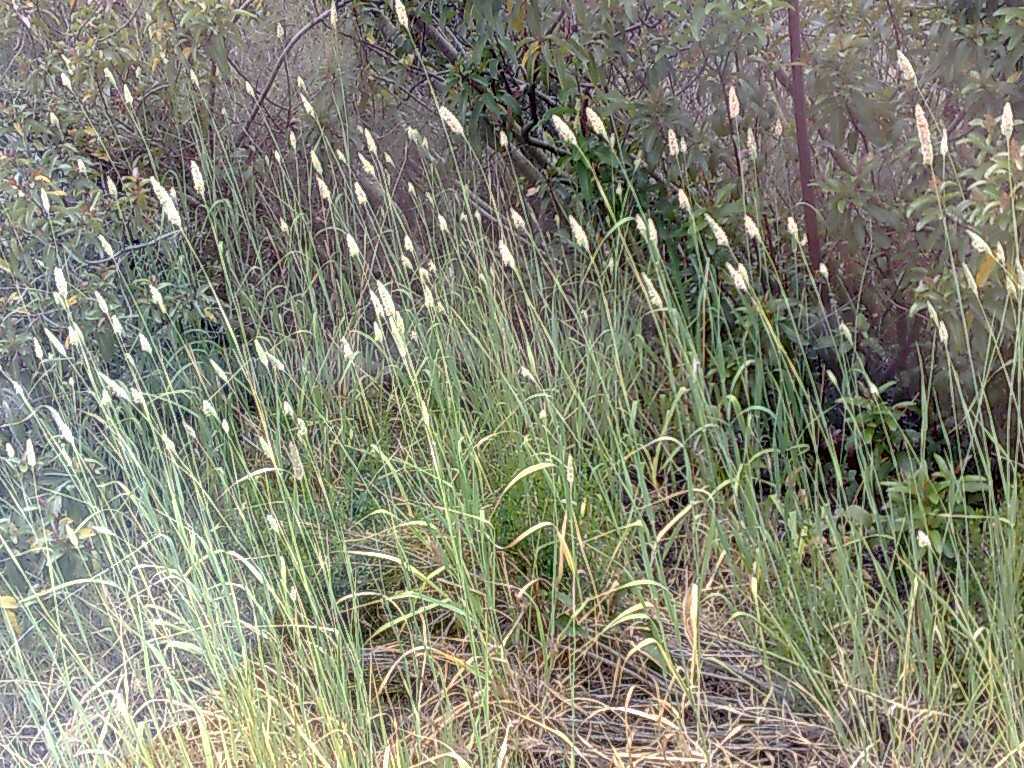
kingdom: Plantae
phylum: Tracheophyta
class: Liliopsida
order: Poales
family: Poaceae
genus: Phalaris
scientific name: Phalaris aquatica
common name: Bulbous canary-grass
